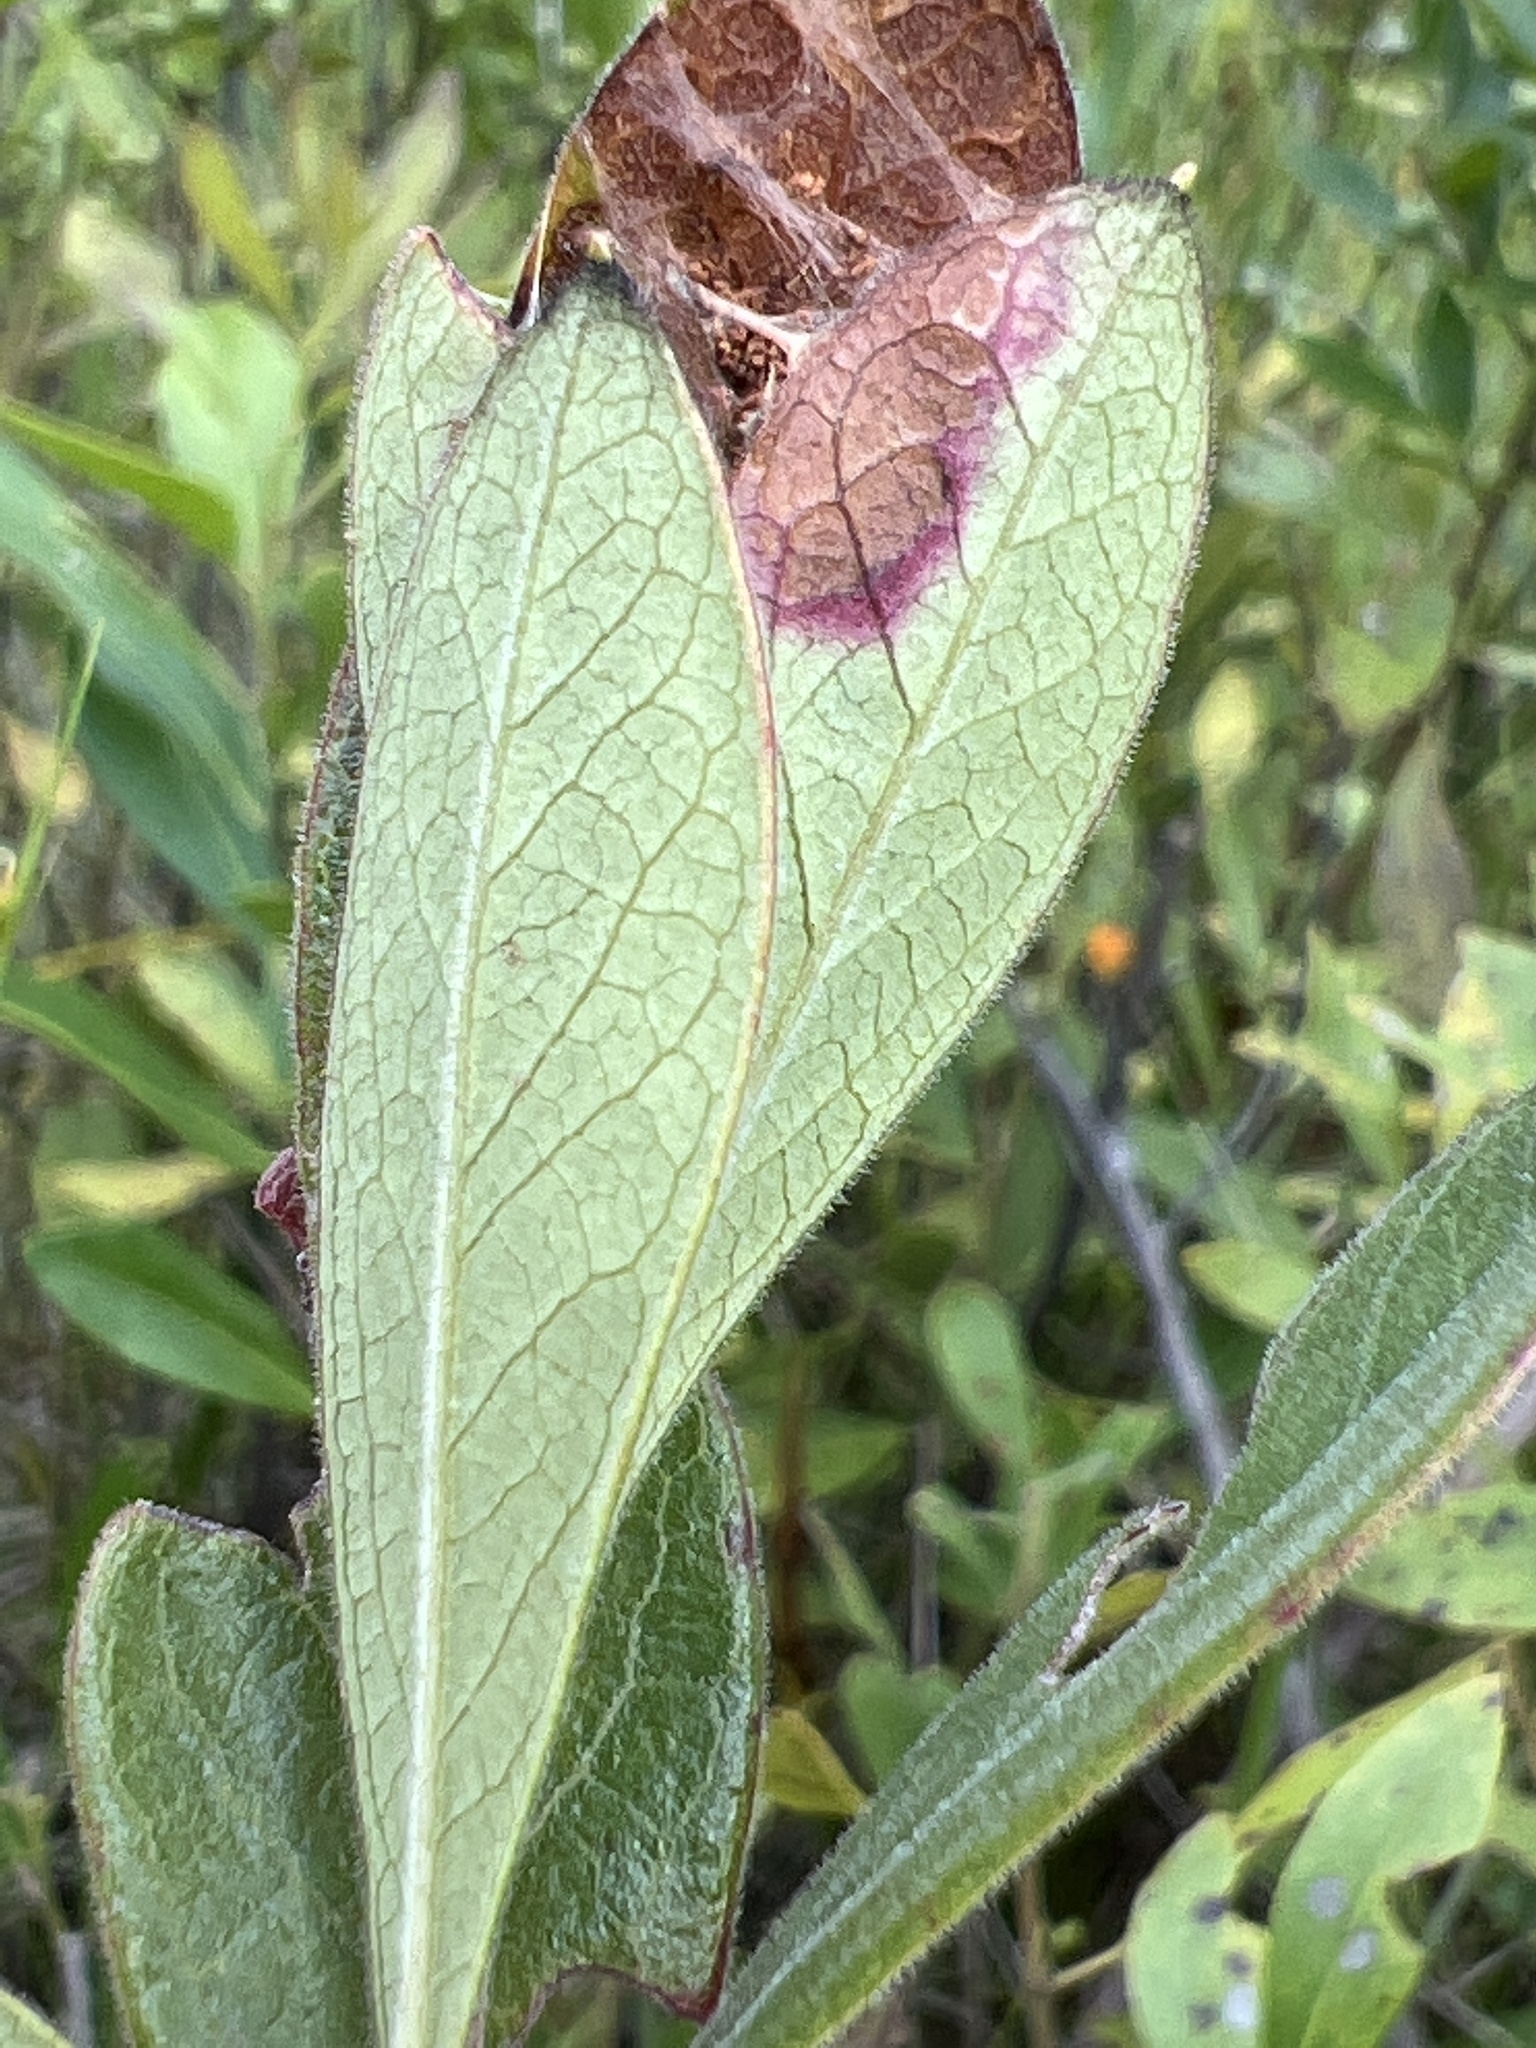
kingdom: Plantae
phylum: Tracheophyta
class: Magnoliopsida
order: Ericales
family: Ericaceae
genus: Gaylussacia
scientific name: Gaylussacia mosieri
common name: Hirsute huckleberry
